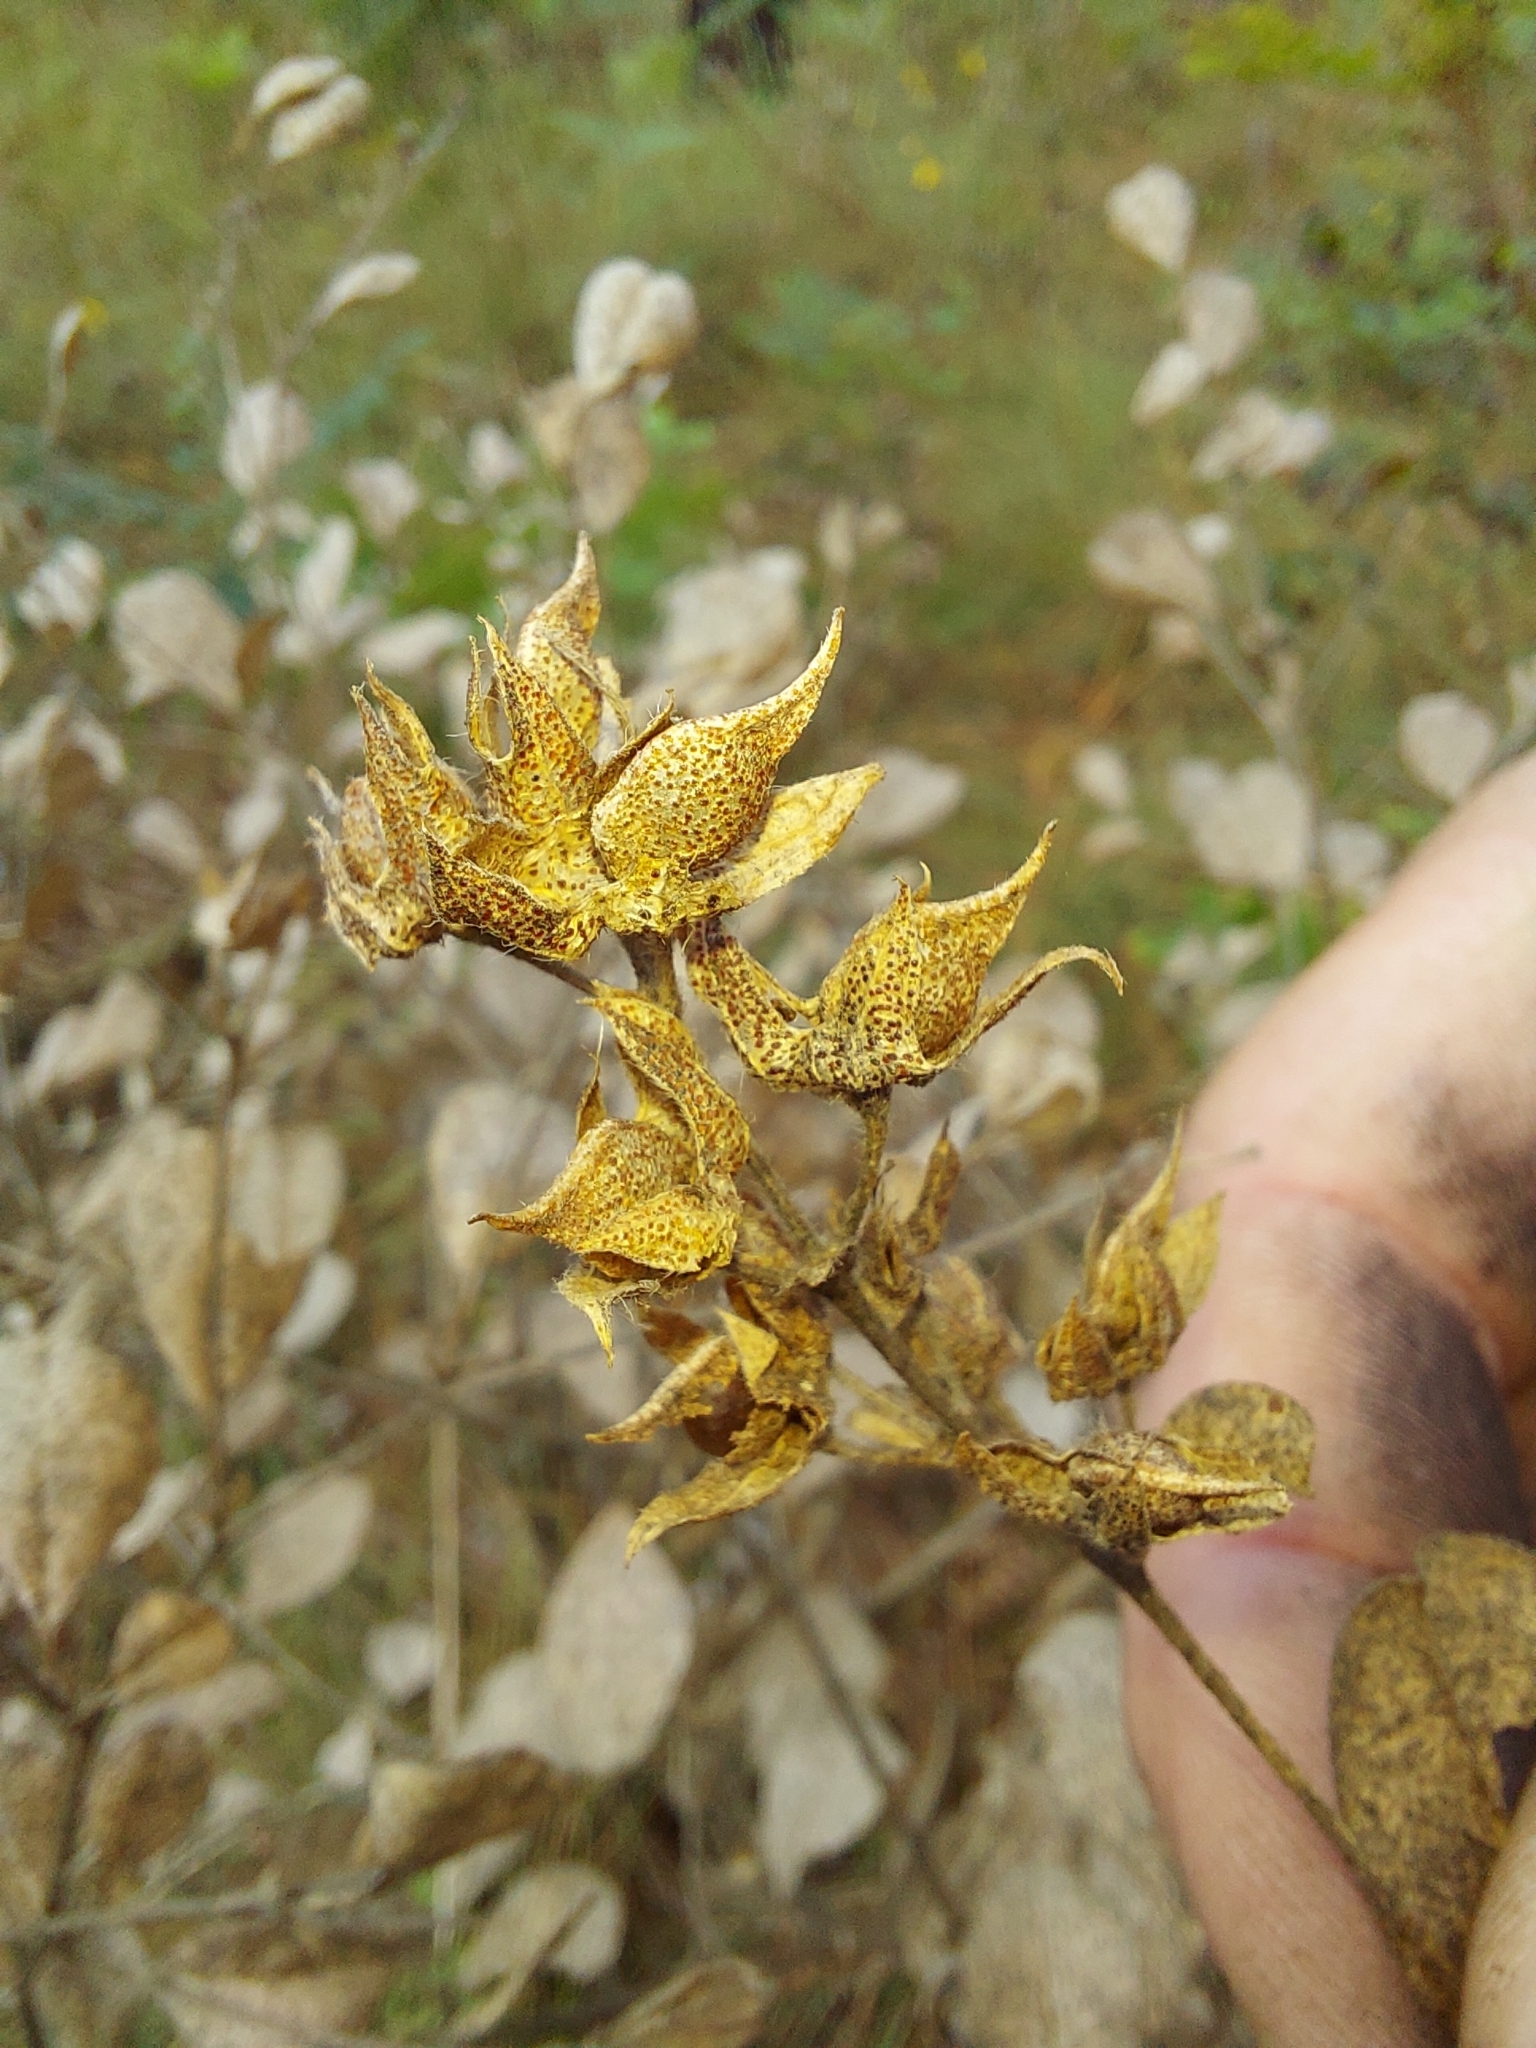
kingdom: Plantae
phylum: Tracheophyta
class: Magnoliopsida
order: Fabales
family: Fabaceae
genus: Pediomelum
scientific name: Pediomelum canescens
